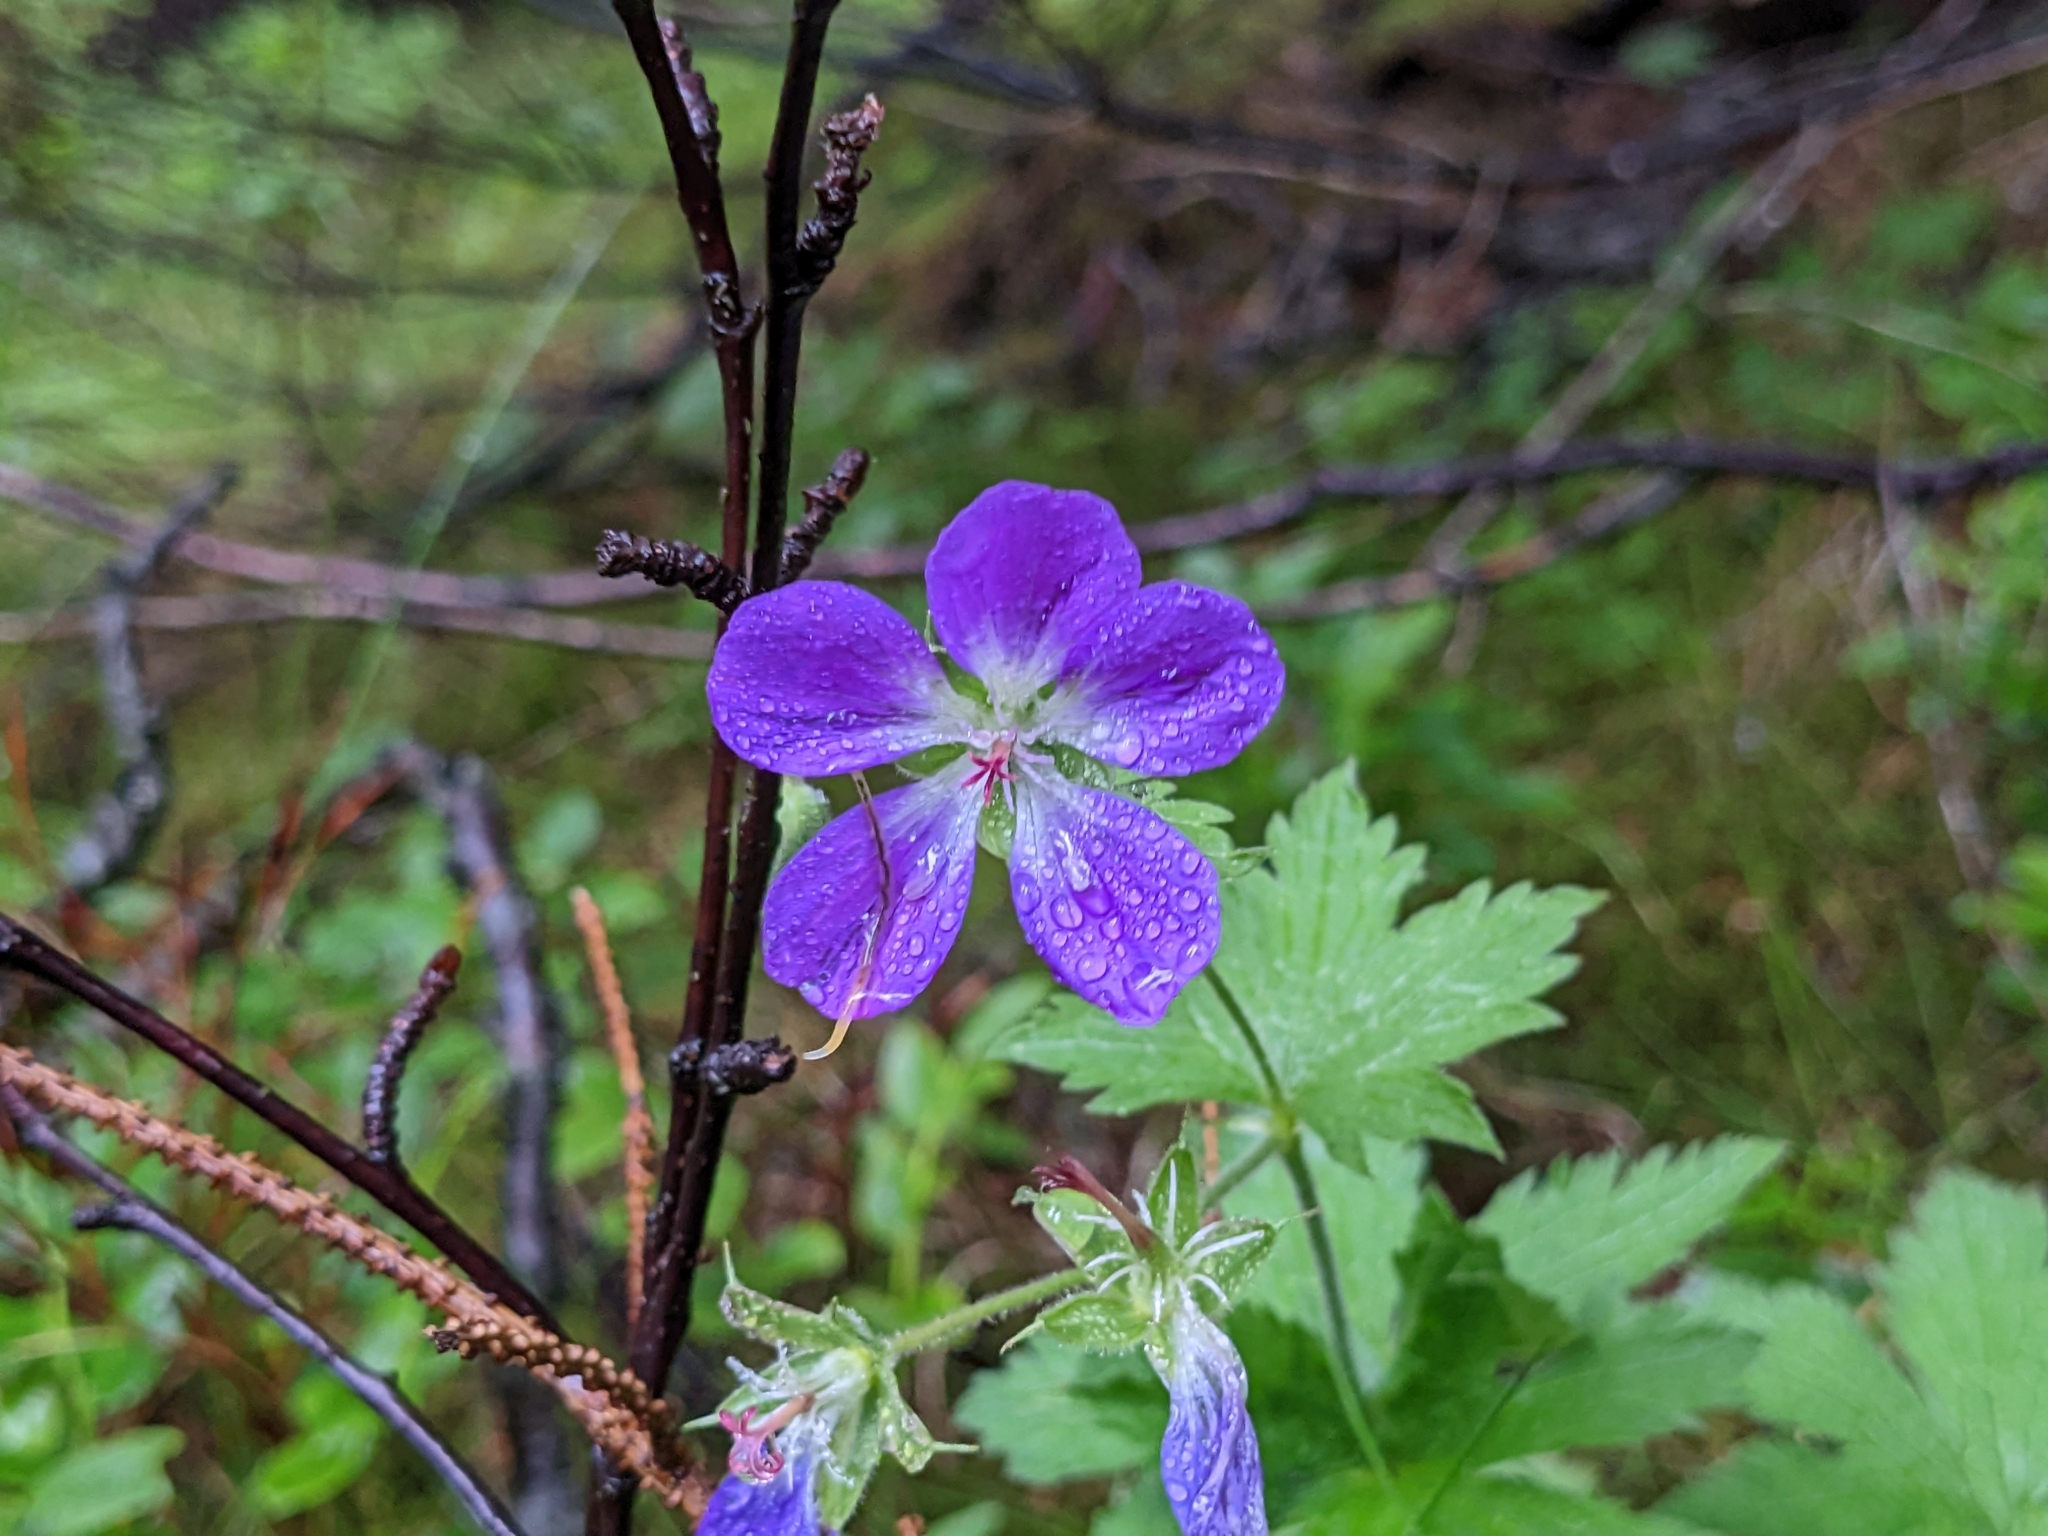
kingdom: Plantae
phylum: Tracheophyta
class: Magnoliopsida
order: Geraniales
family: Geraniaceae
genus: Geranium
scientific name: Geranium sylvaticum
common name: Wood crane's-bill
